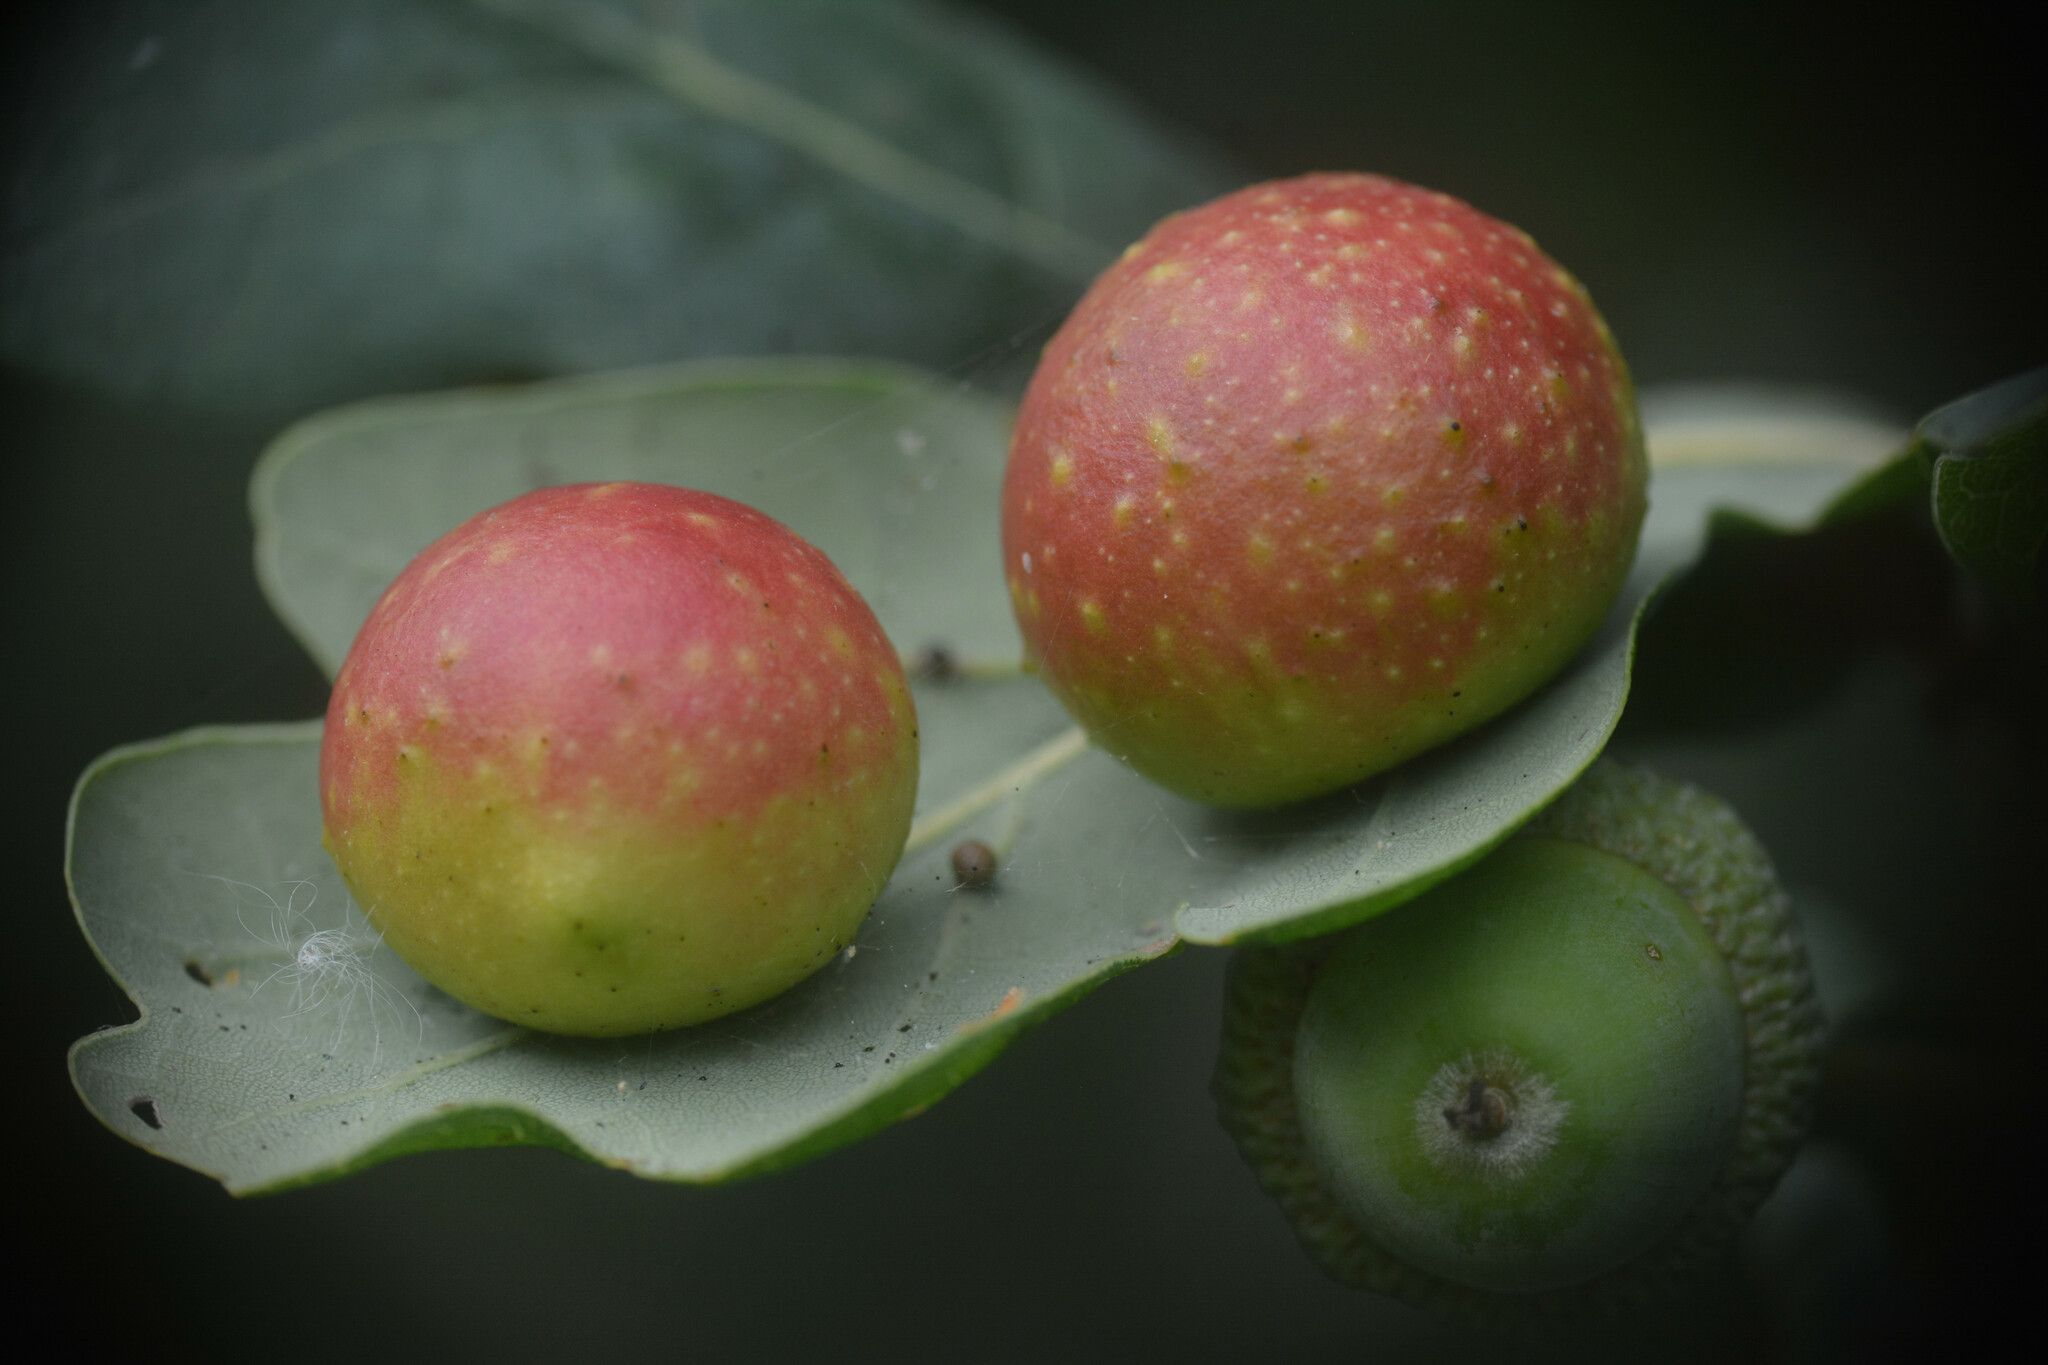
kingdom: Animalia
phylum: Arthropoda
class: Insecta
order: Hymenoptera
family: Cynipidae
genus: Cynips
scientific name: Cynips quercusfolii
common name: Cherry gall
